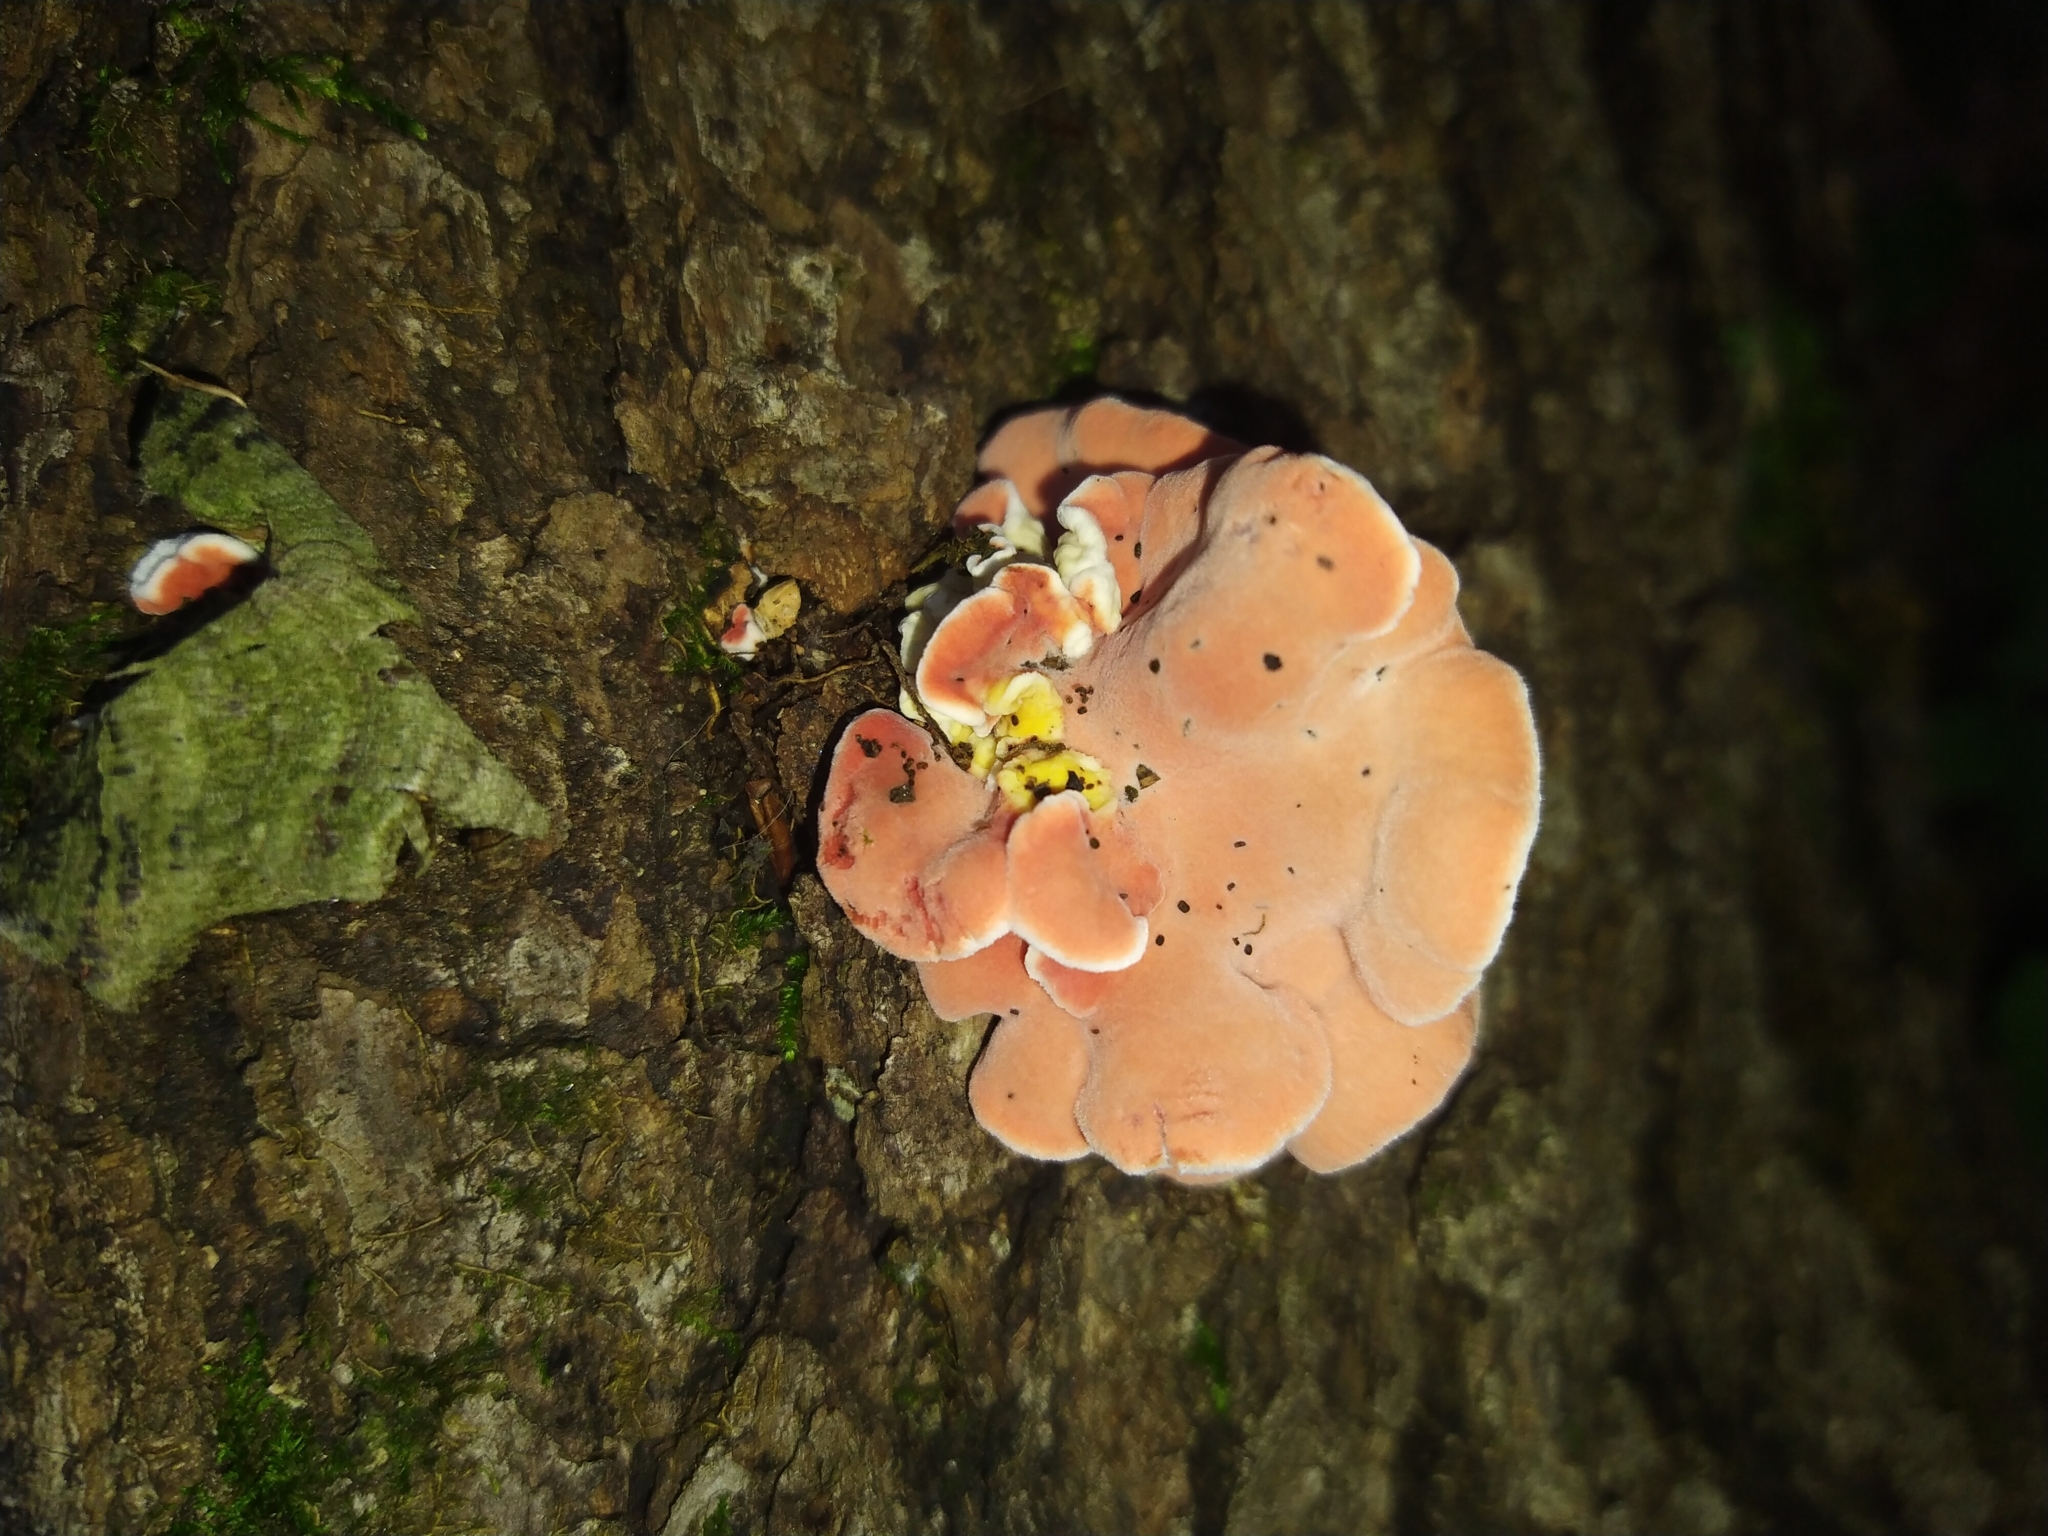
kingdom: Fungi
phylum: Basidiomycota
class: Agaricomycetes
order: Polyporales
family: Irpicaceae
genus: Byssomerulius
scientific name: Byssomerulius incarnatus
